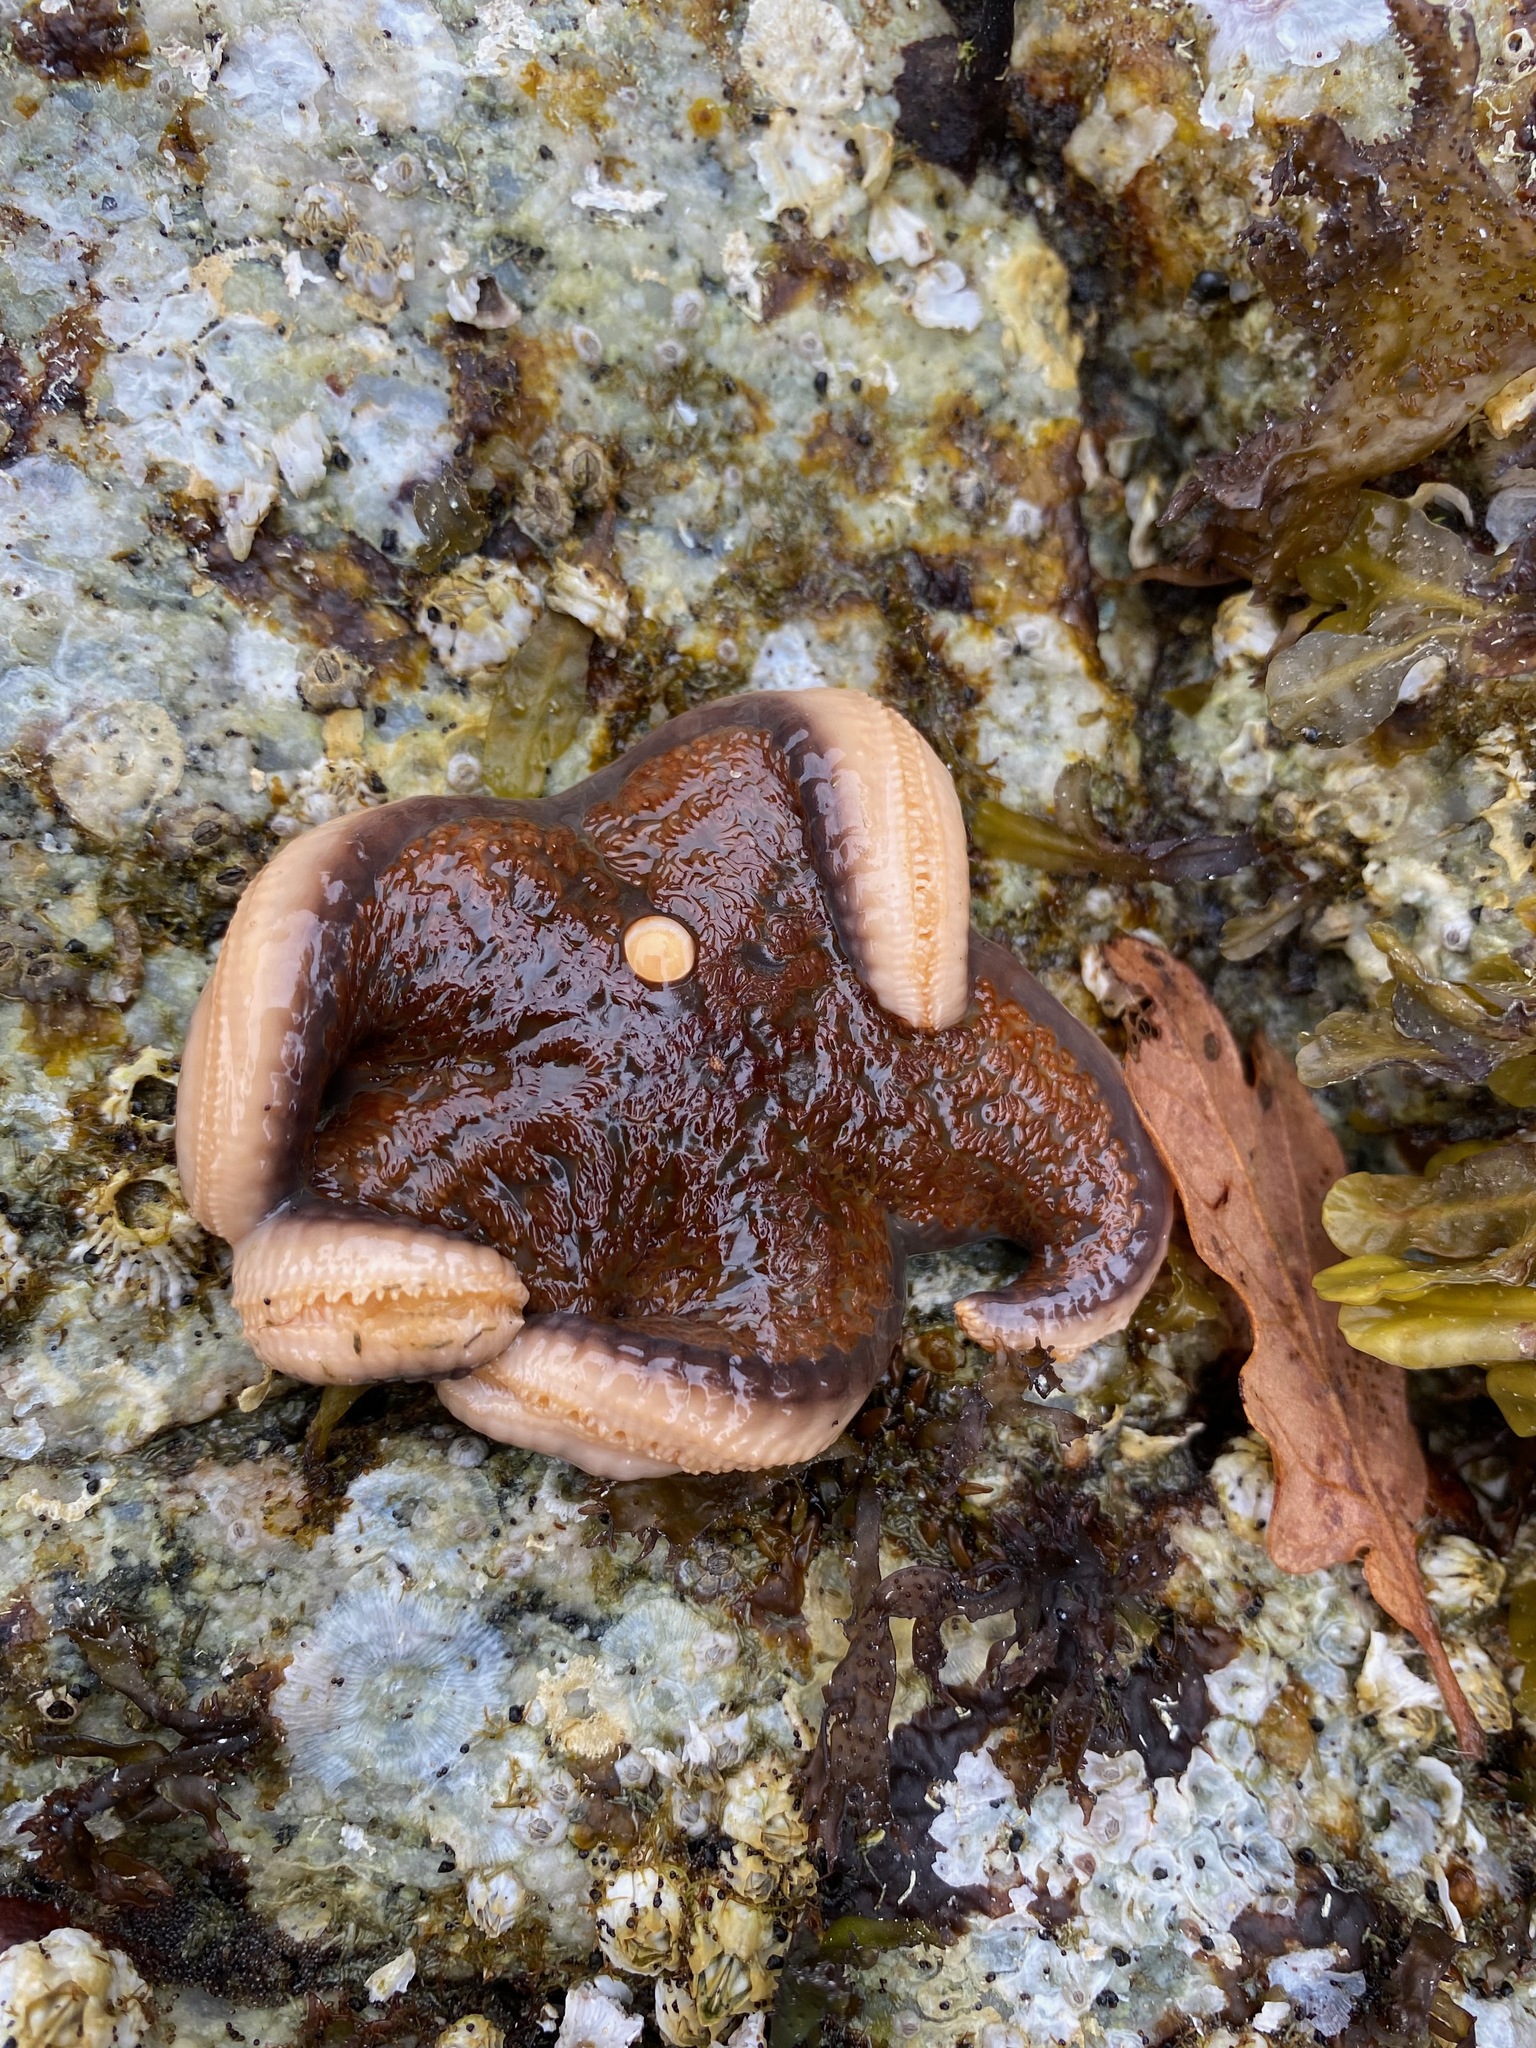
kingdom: Animalia
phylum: Echinodermata
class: Asteroidea
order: Valvatida
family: Asteropseidae
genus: Dermasterias
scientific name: Dermasterias imbricata
